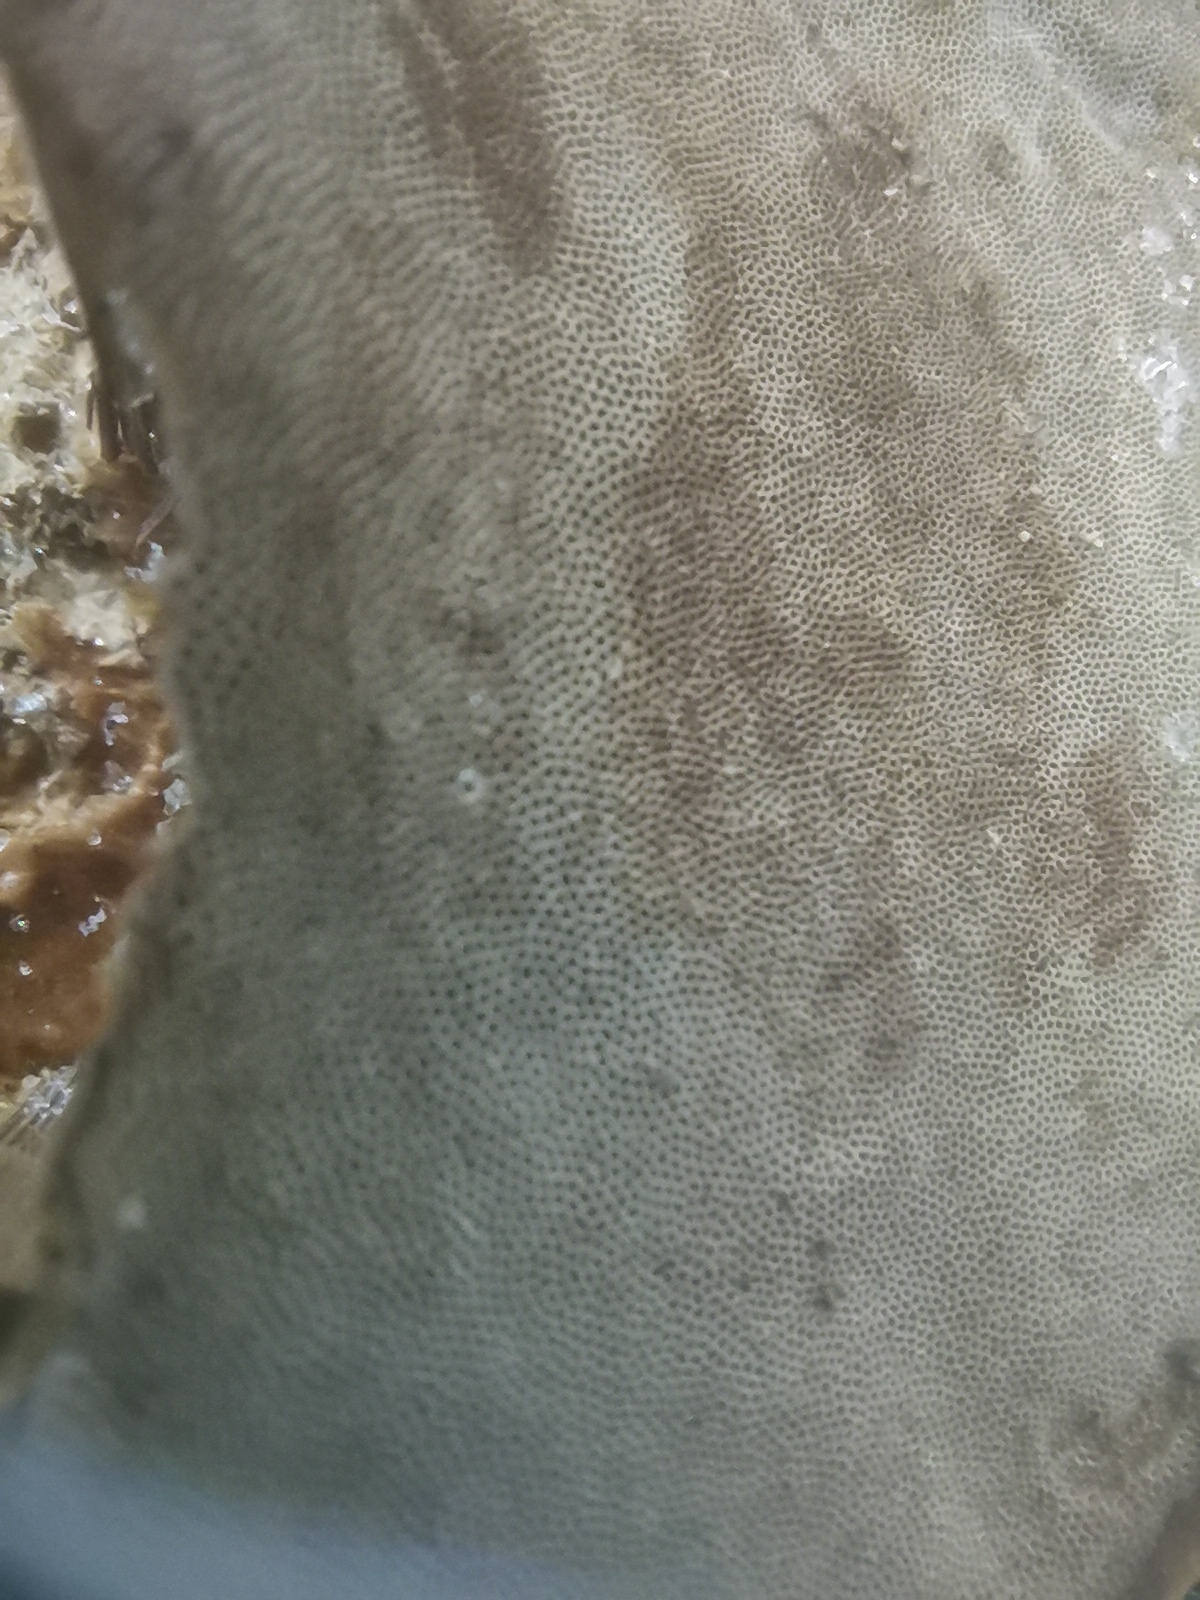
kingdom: Fungi
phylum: Basidiomycota
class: Agaricomycetes
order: Polyporales
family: Polyporaceae
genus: Fomes
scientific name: Fomes fomentarius
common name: Hoof fungus
